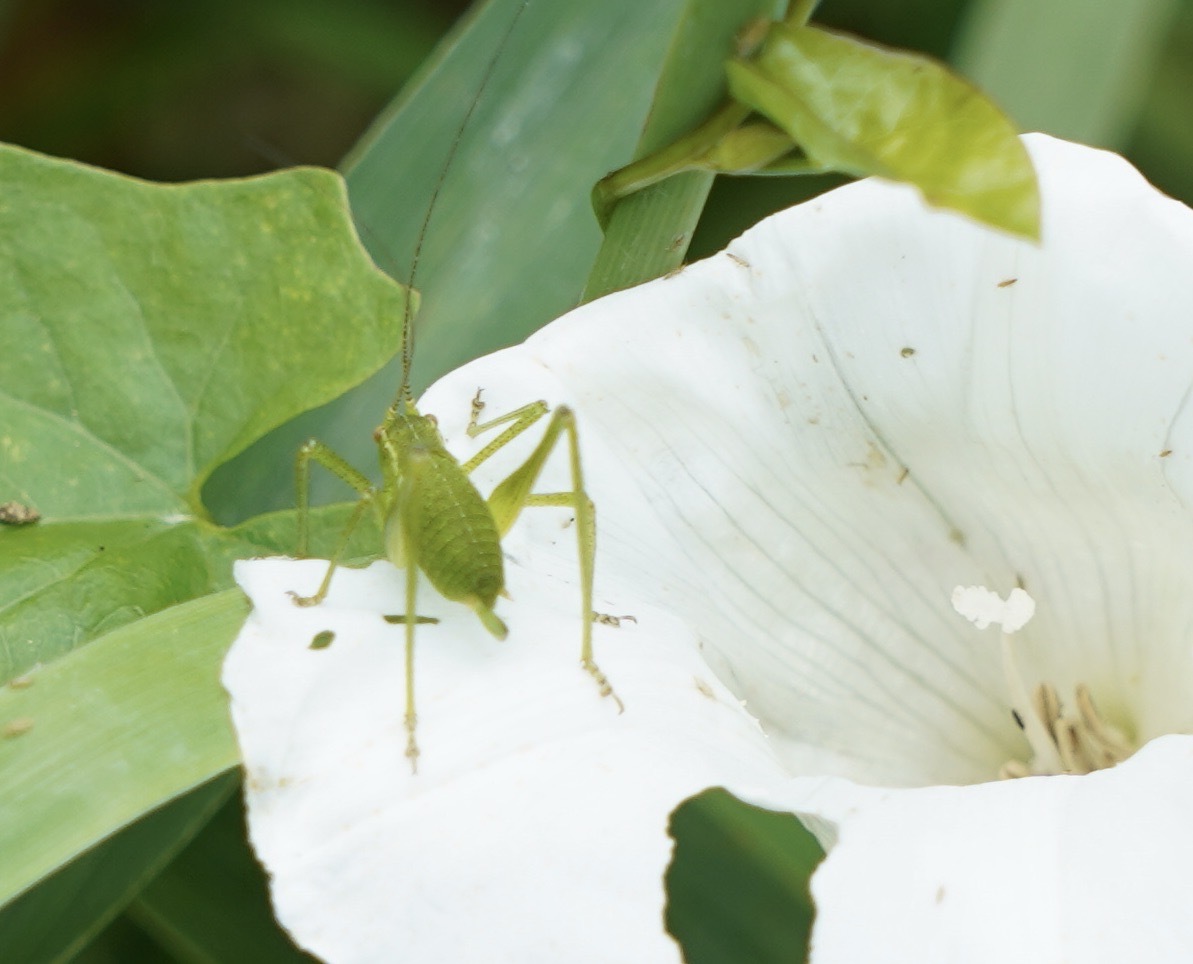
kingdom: Animalia
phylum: Arthropoda
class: Insecta
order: Orthoptera
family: Tettigoniidae
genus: Leptophyes
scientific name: Leptophyes punctatissima
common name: Speckled bush-cricket
